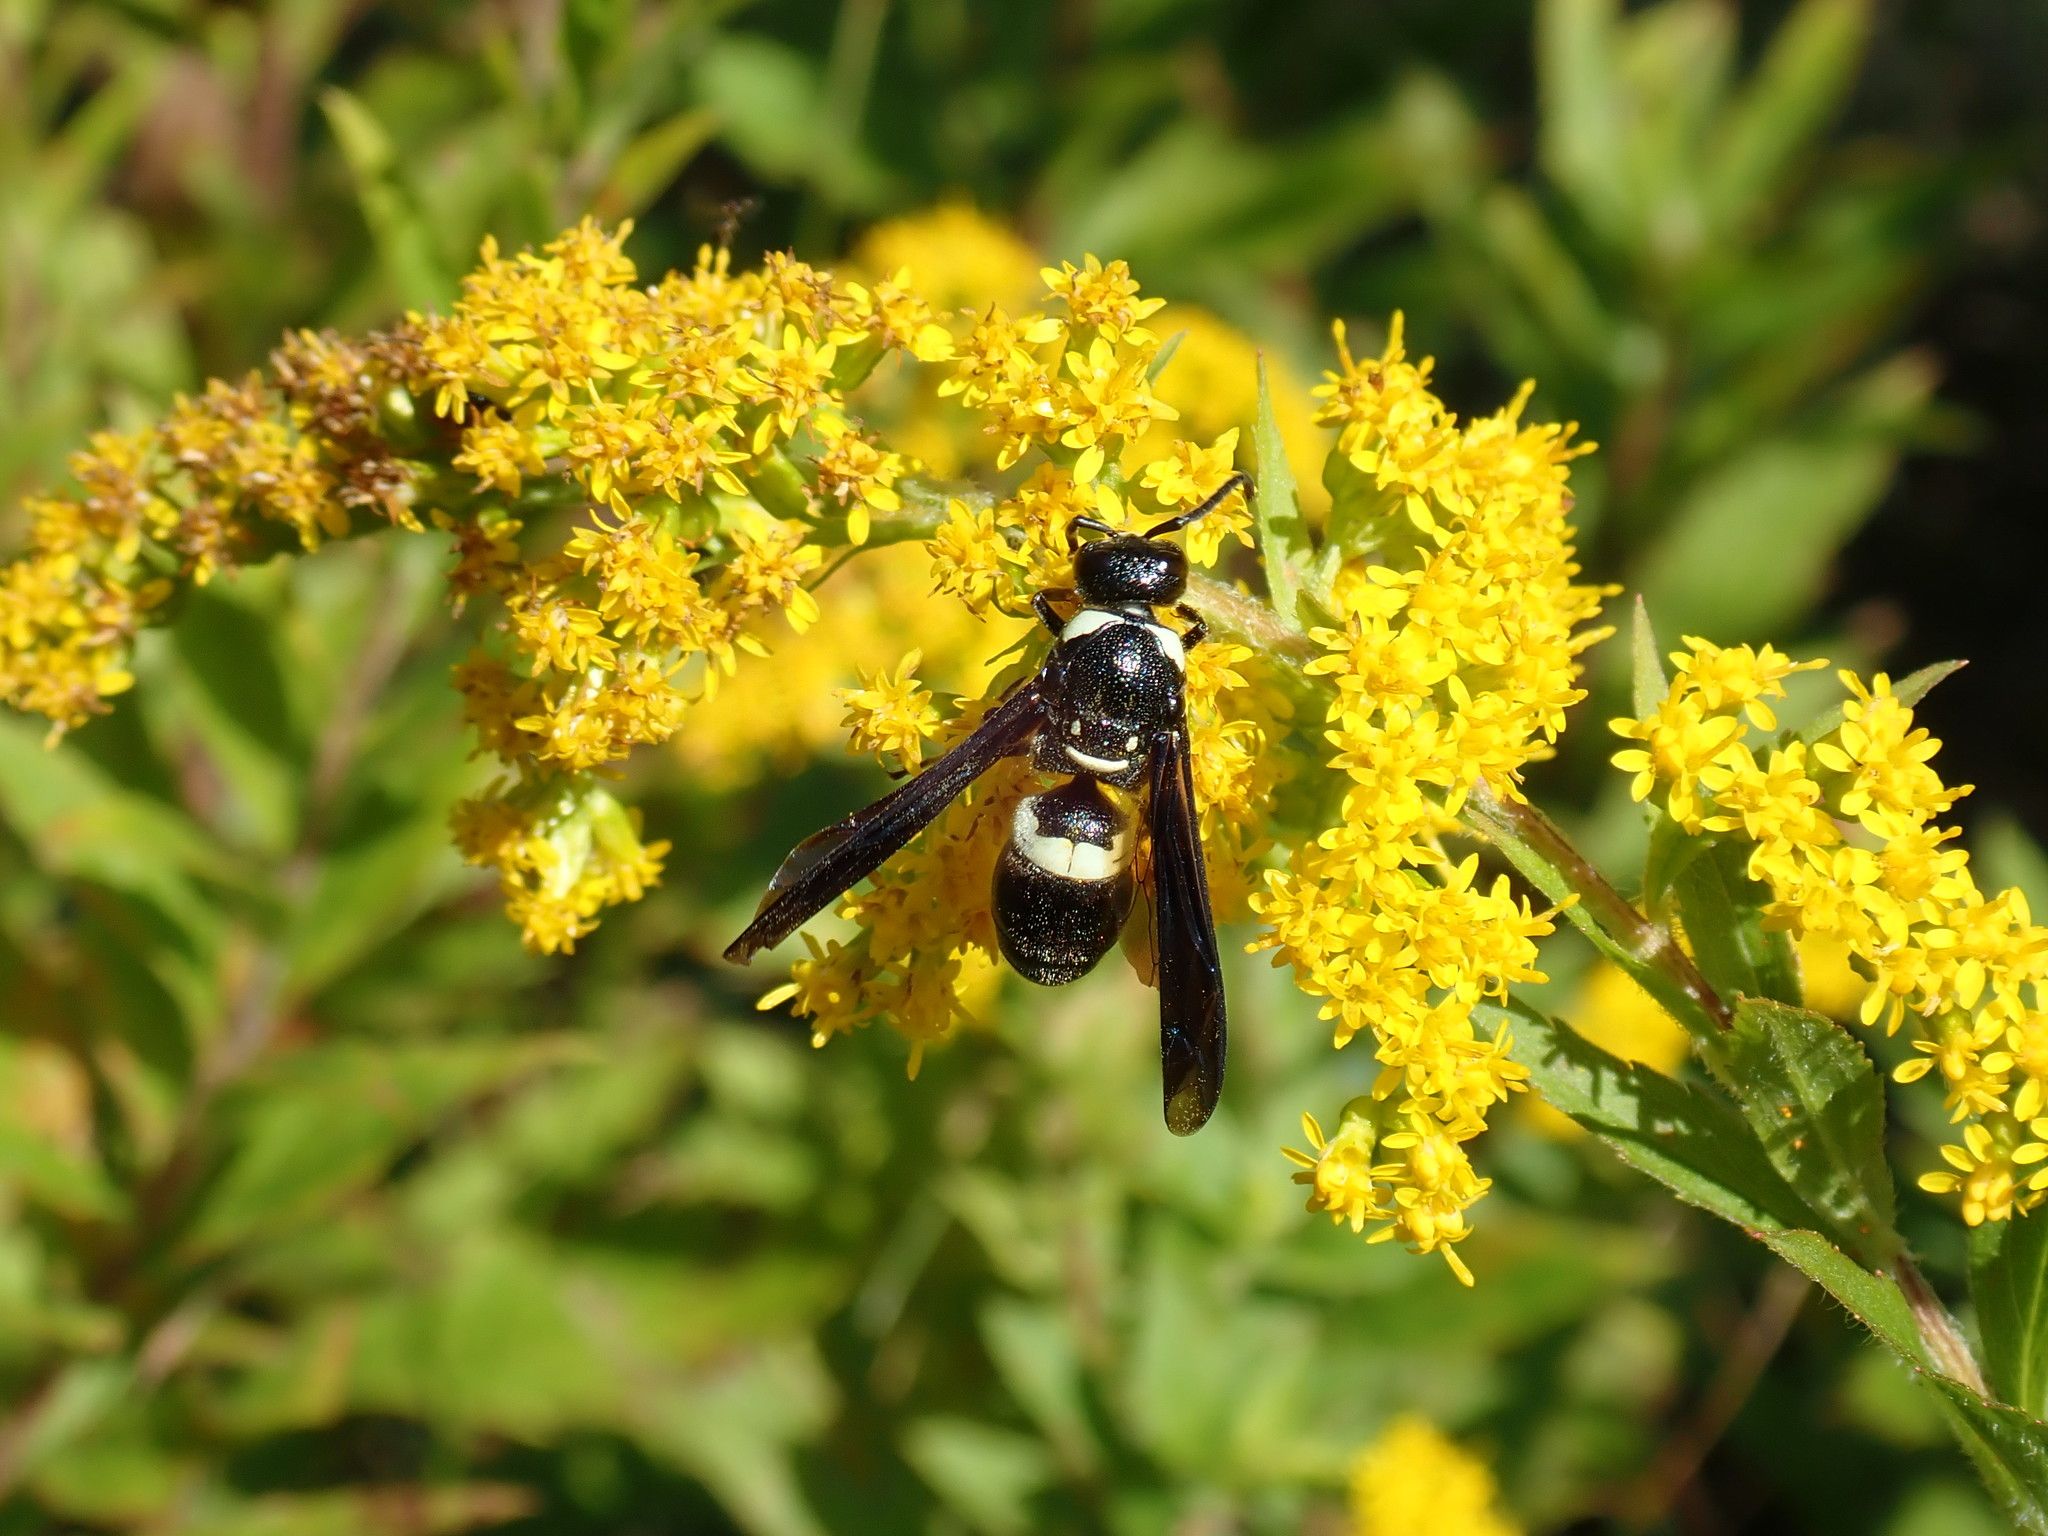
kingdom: Animalia
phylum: Arthropoda
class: Insecta
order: Hymenoptera
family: Eumenidae
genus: Monobia
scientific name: Monobia quadridens
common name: Four-toothed mason wasp
